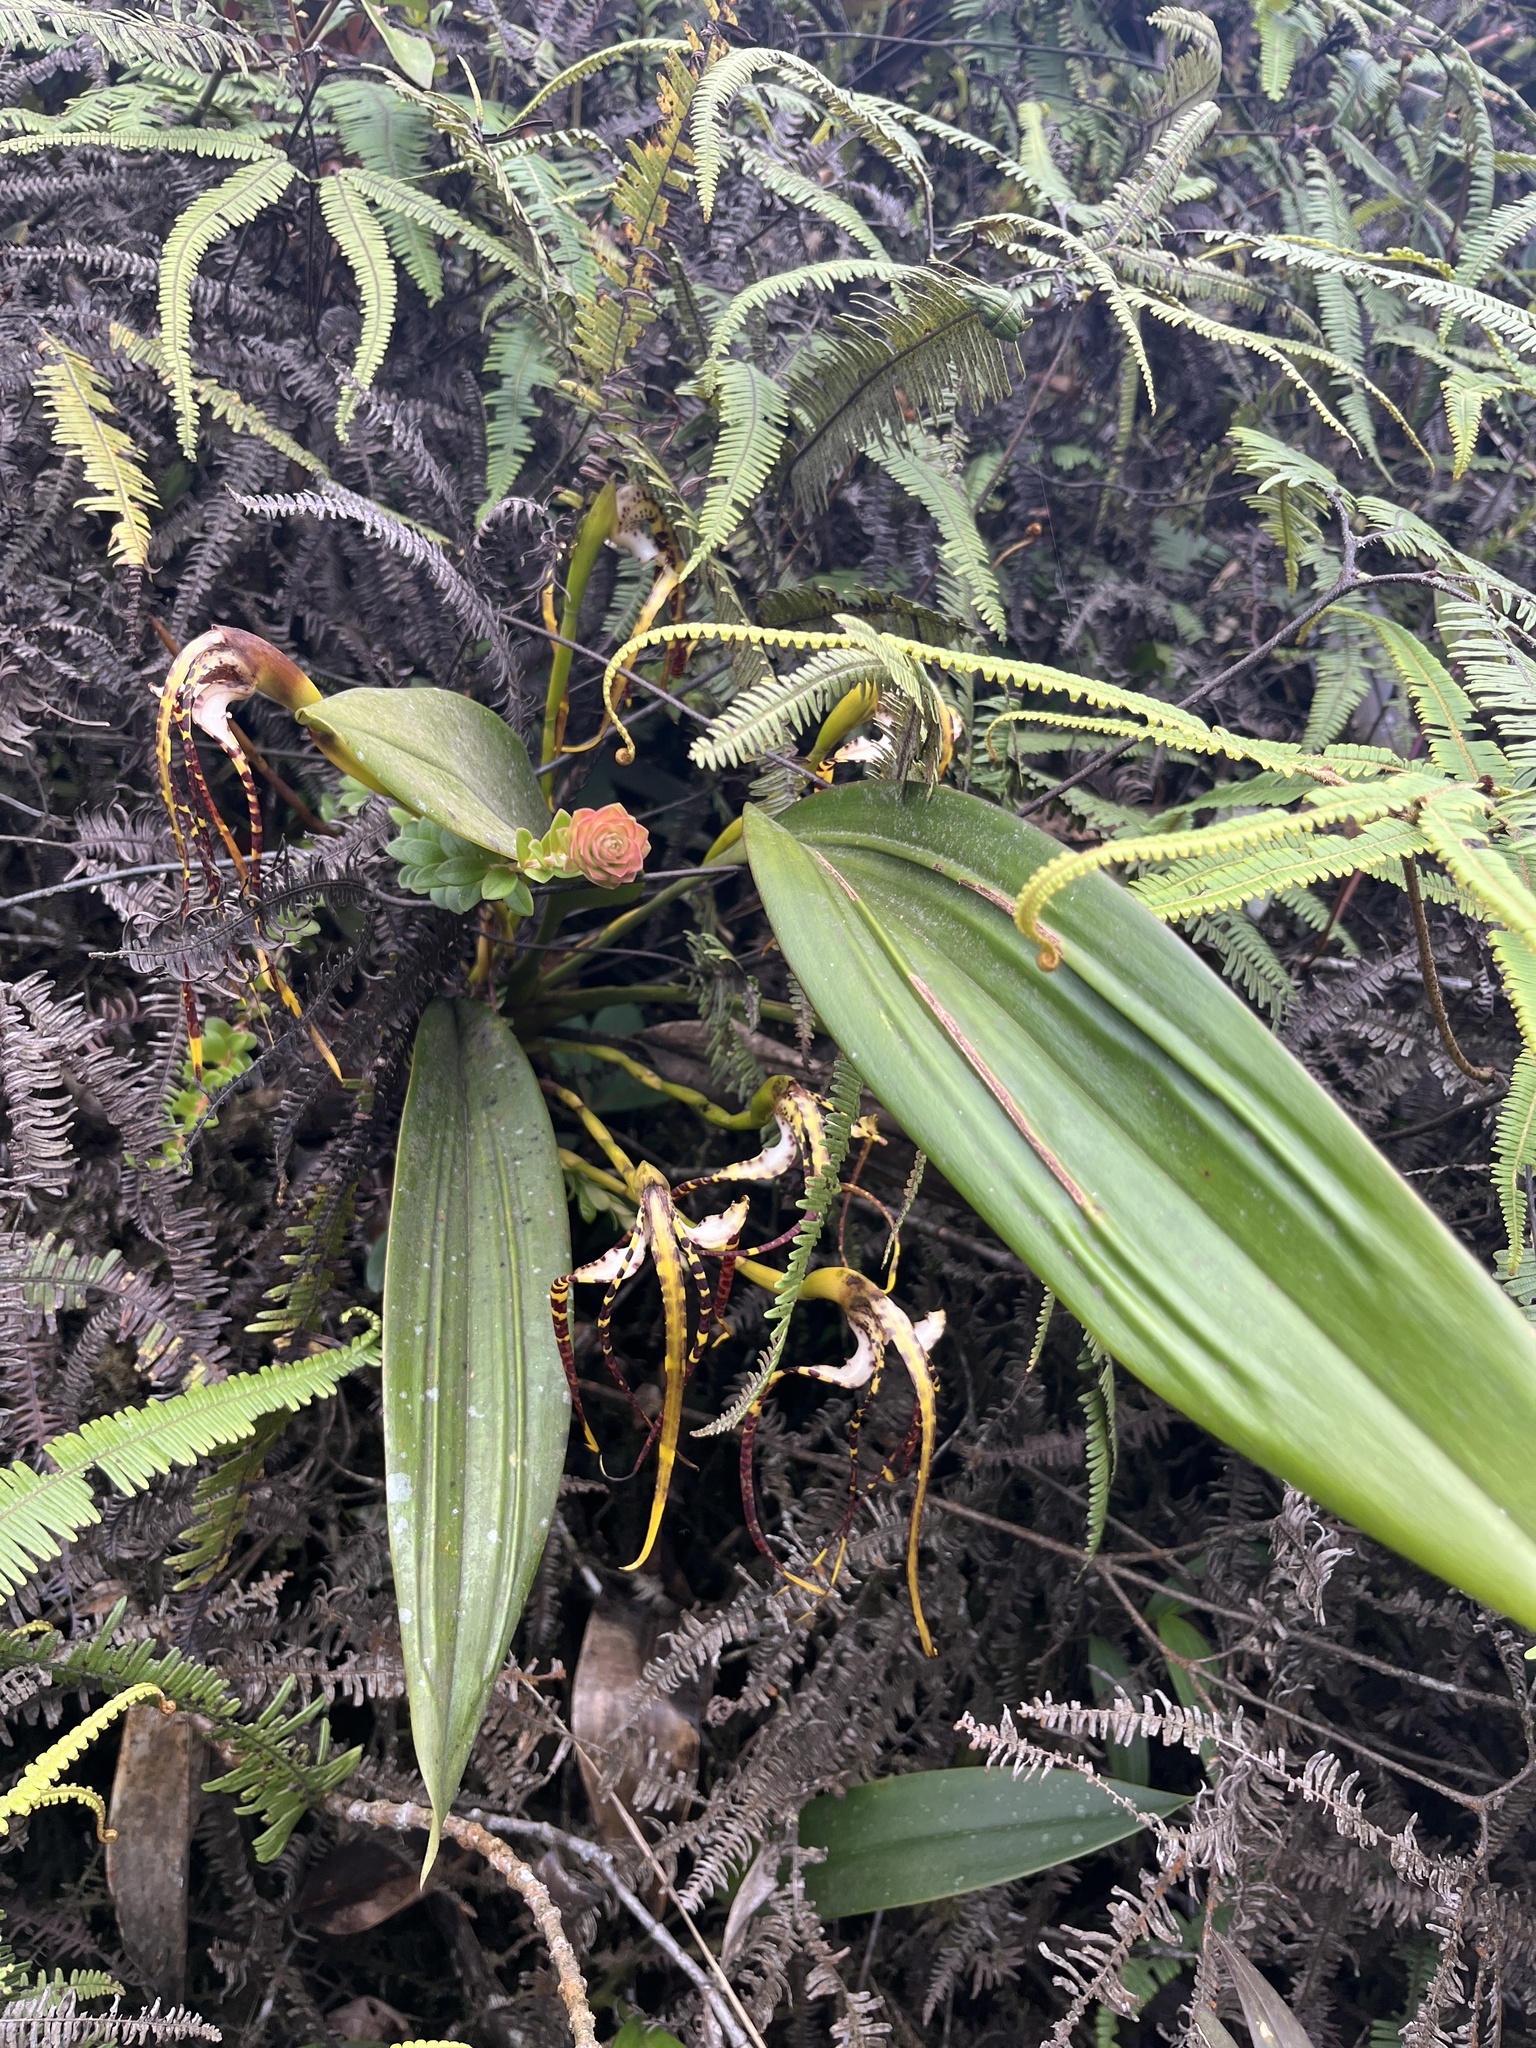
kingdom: Plantae
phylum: Tracheophyta
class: Liliopsida
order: Asparagales
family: Orchidaceae
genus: Maxillaria
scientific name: Maxillaria speciosa
